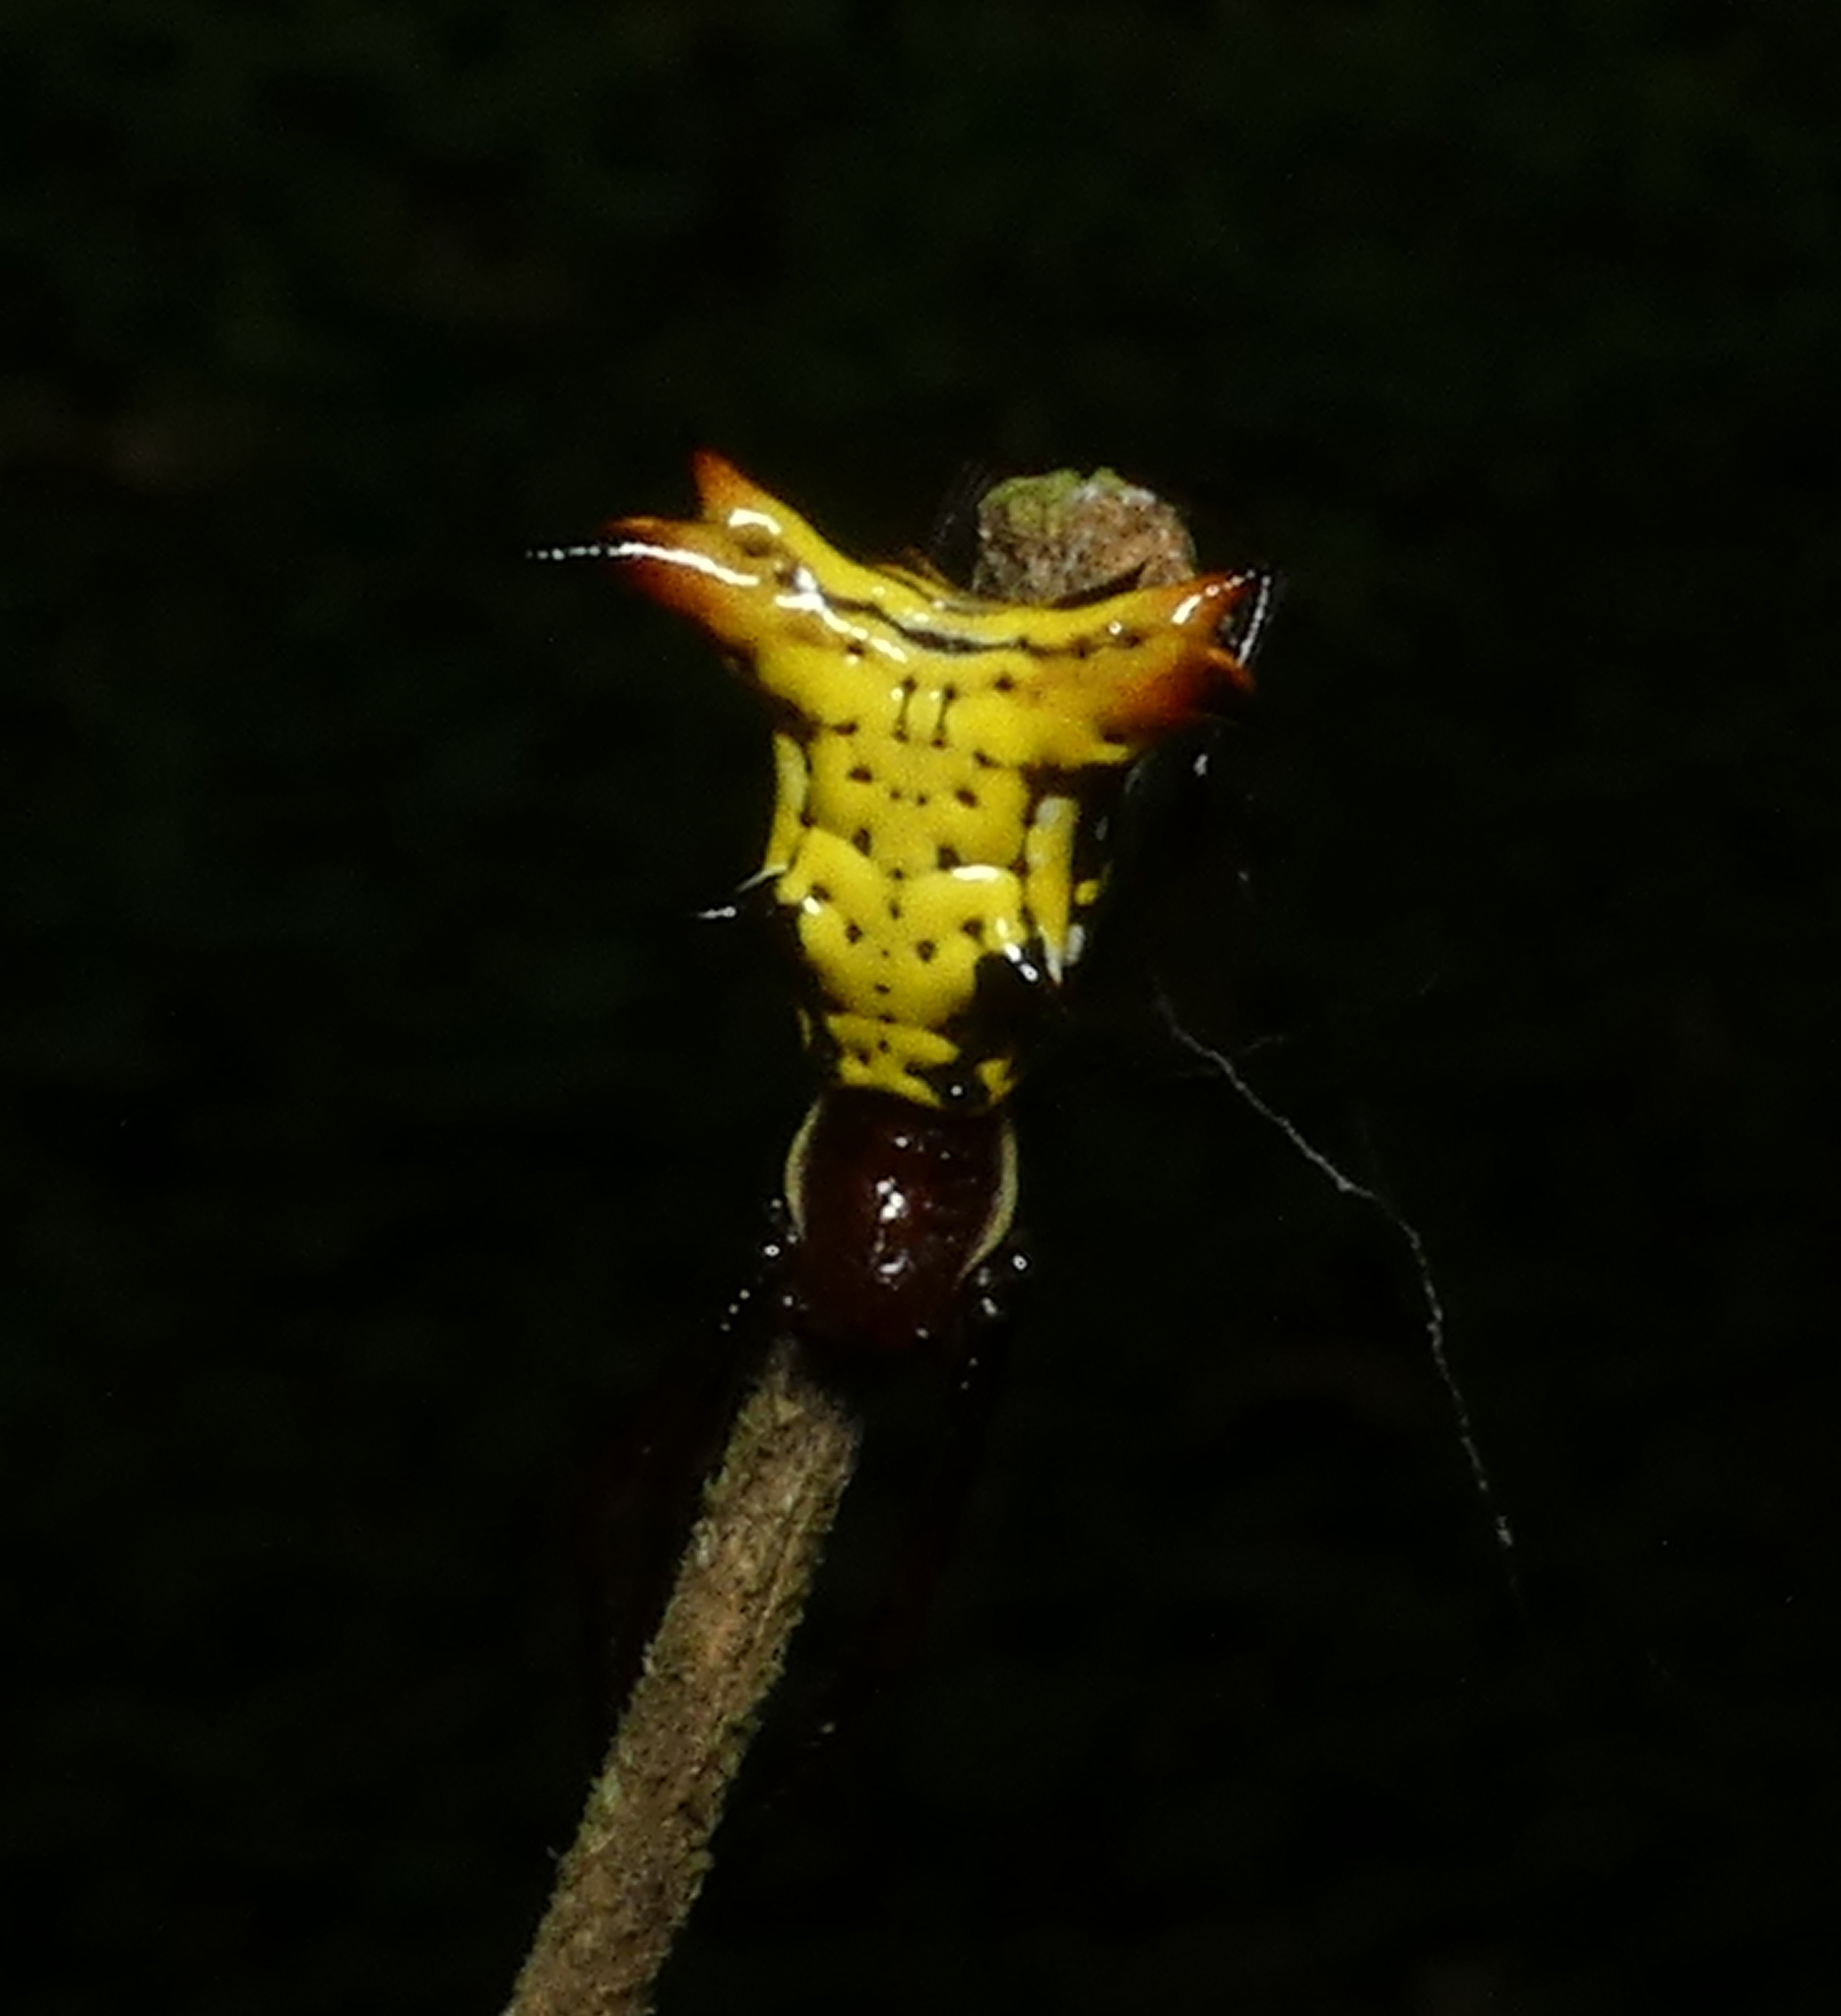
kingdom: Animalia
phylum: Arthropoda
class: Arachnida
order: Araneae
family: Araneidae
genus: Micrathena
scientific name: Micrathena fissispina
